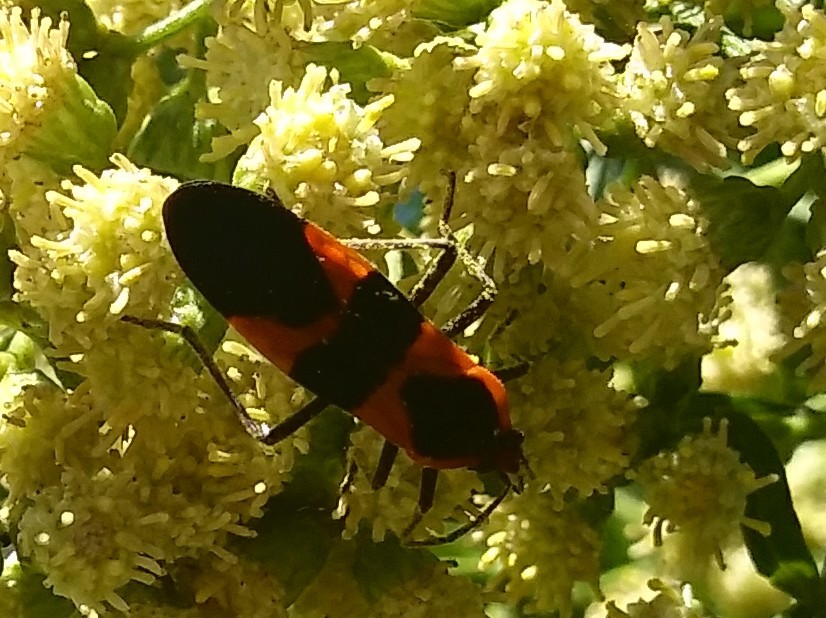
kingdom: Animalia
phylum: Arthropoda
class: Insecta
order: Hemiptera
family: Lygaeidae
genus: Oncopeltus
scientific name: Oncopeltus fasciatus
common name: Large milkweed bug
